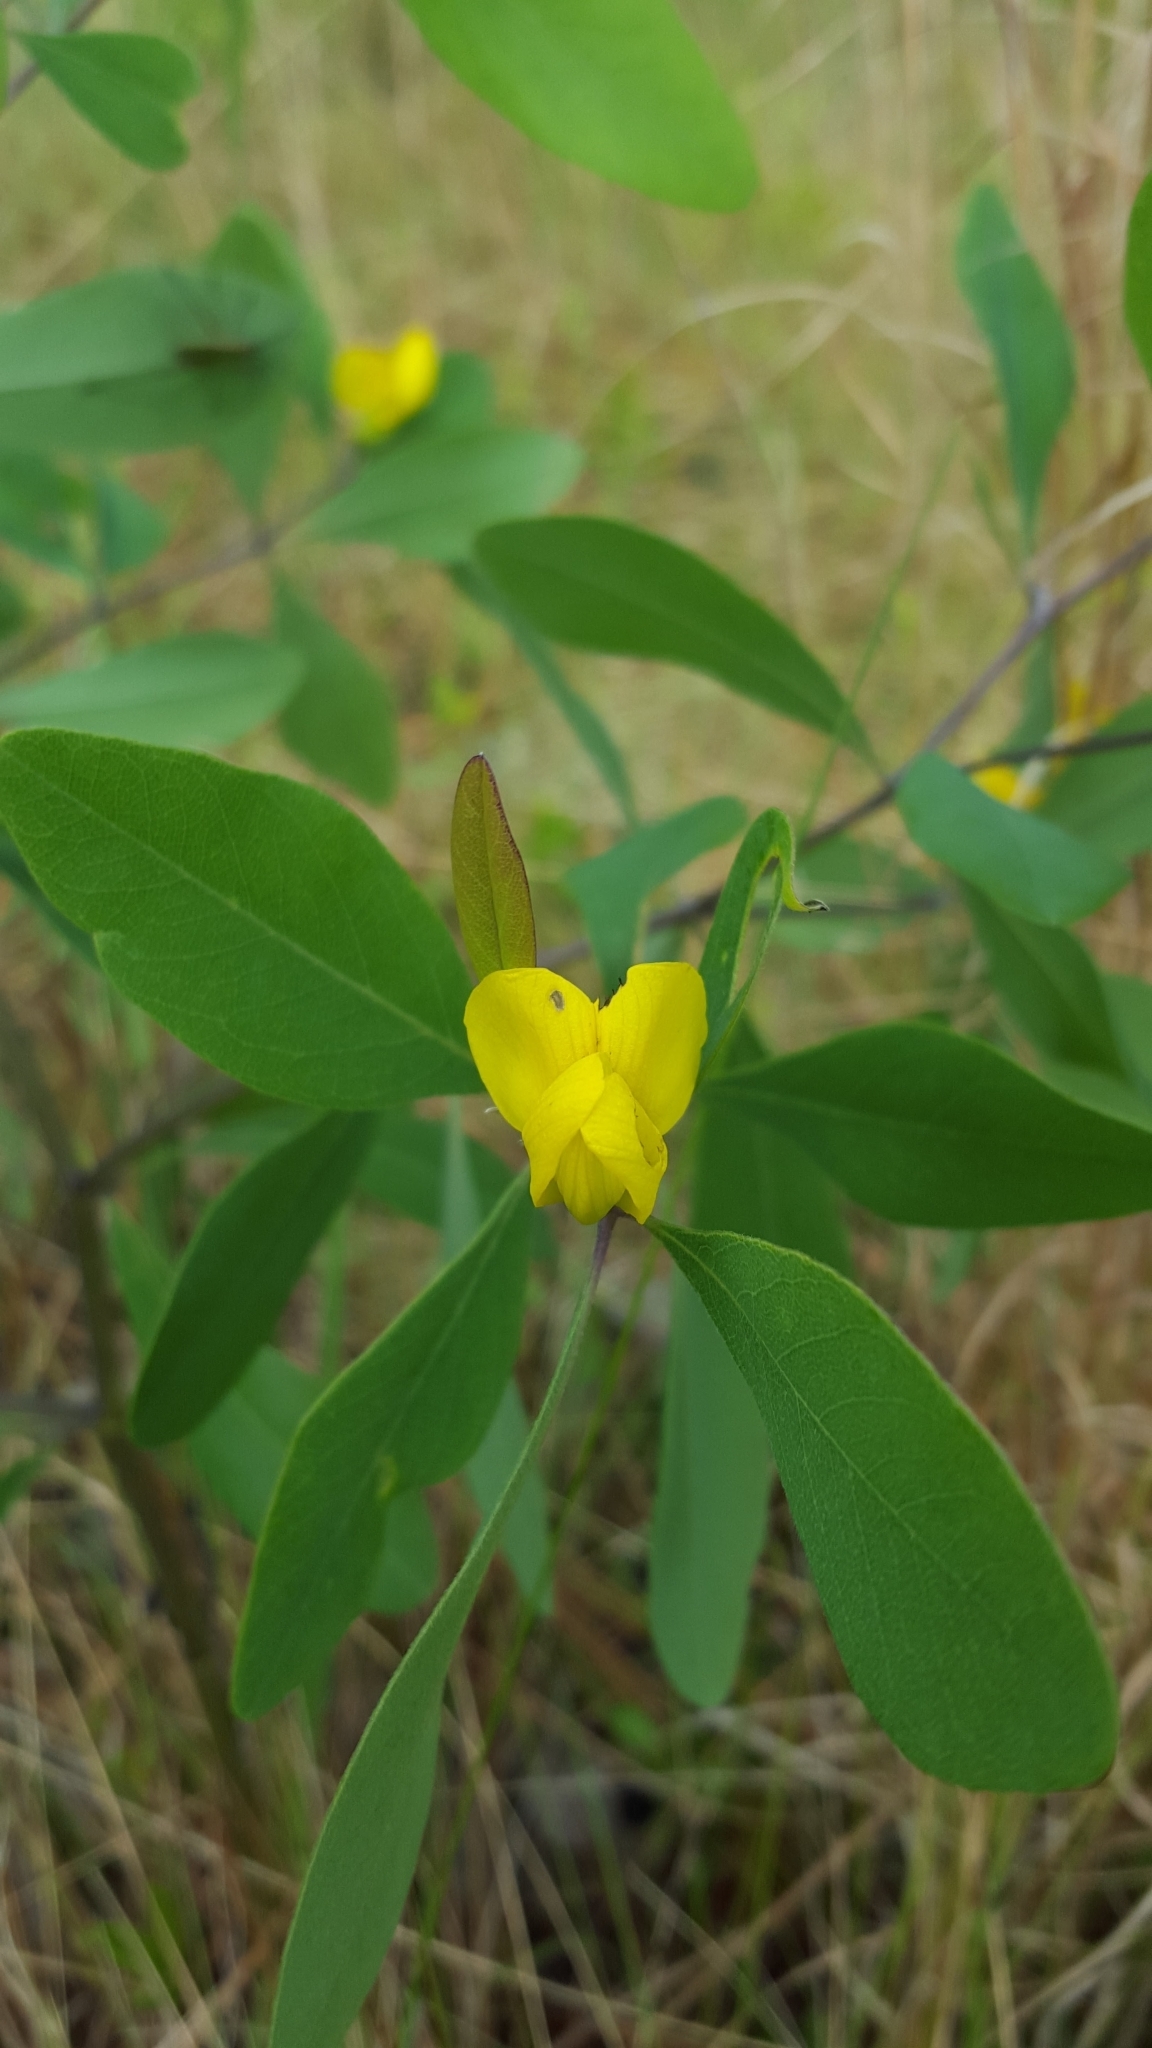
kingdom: Plantae
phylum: Tracheophyta
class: Magnoliopsida
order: Fabales
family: Fabaceae
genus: Baptisia
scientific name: Baptisia lanceolata
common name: Gopherweed
